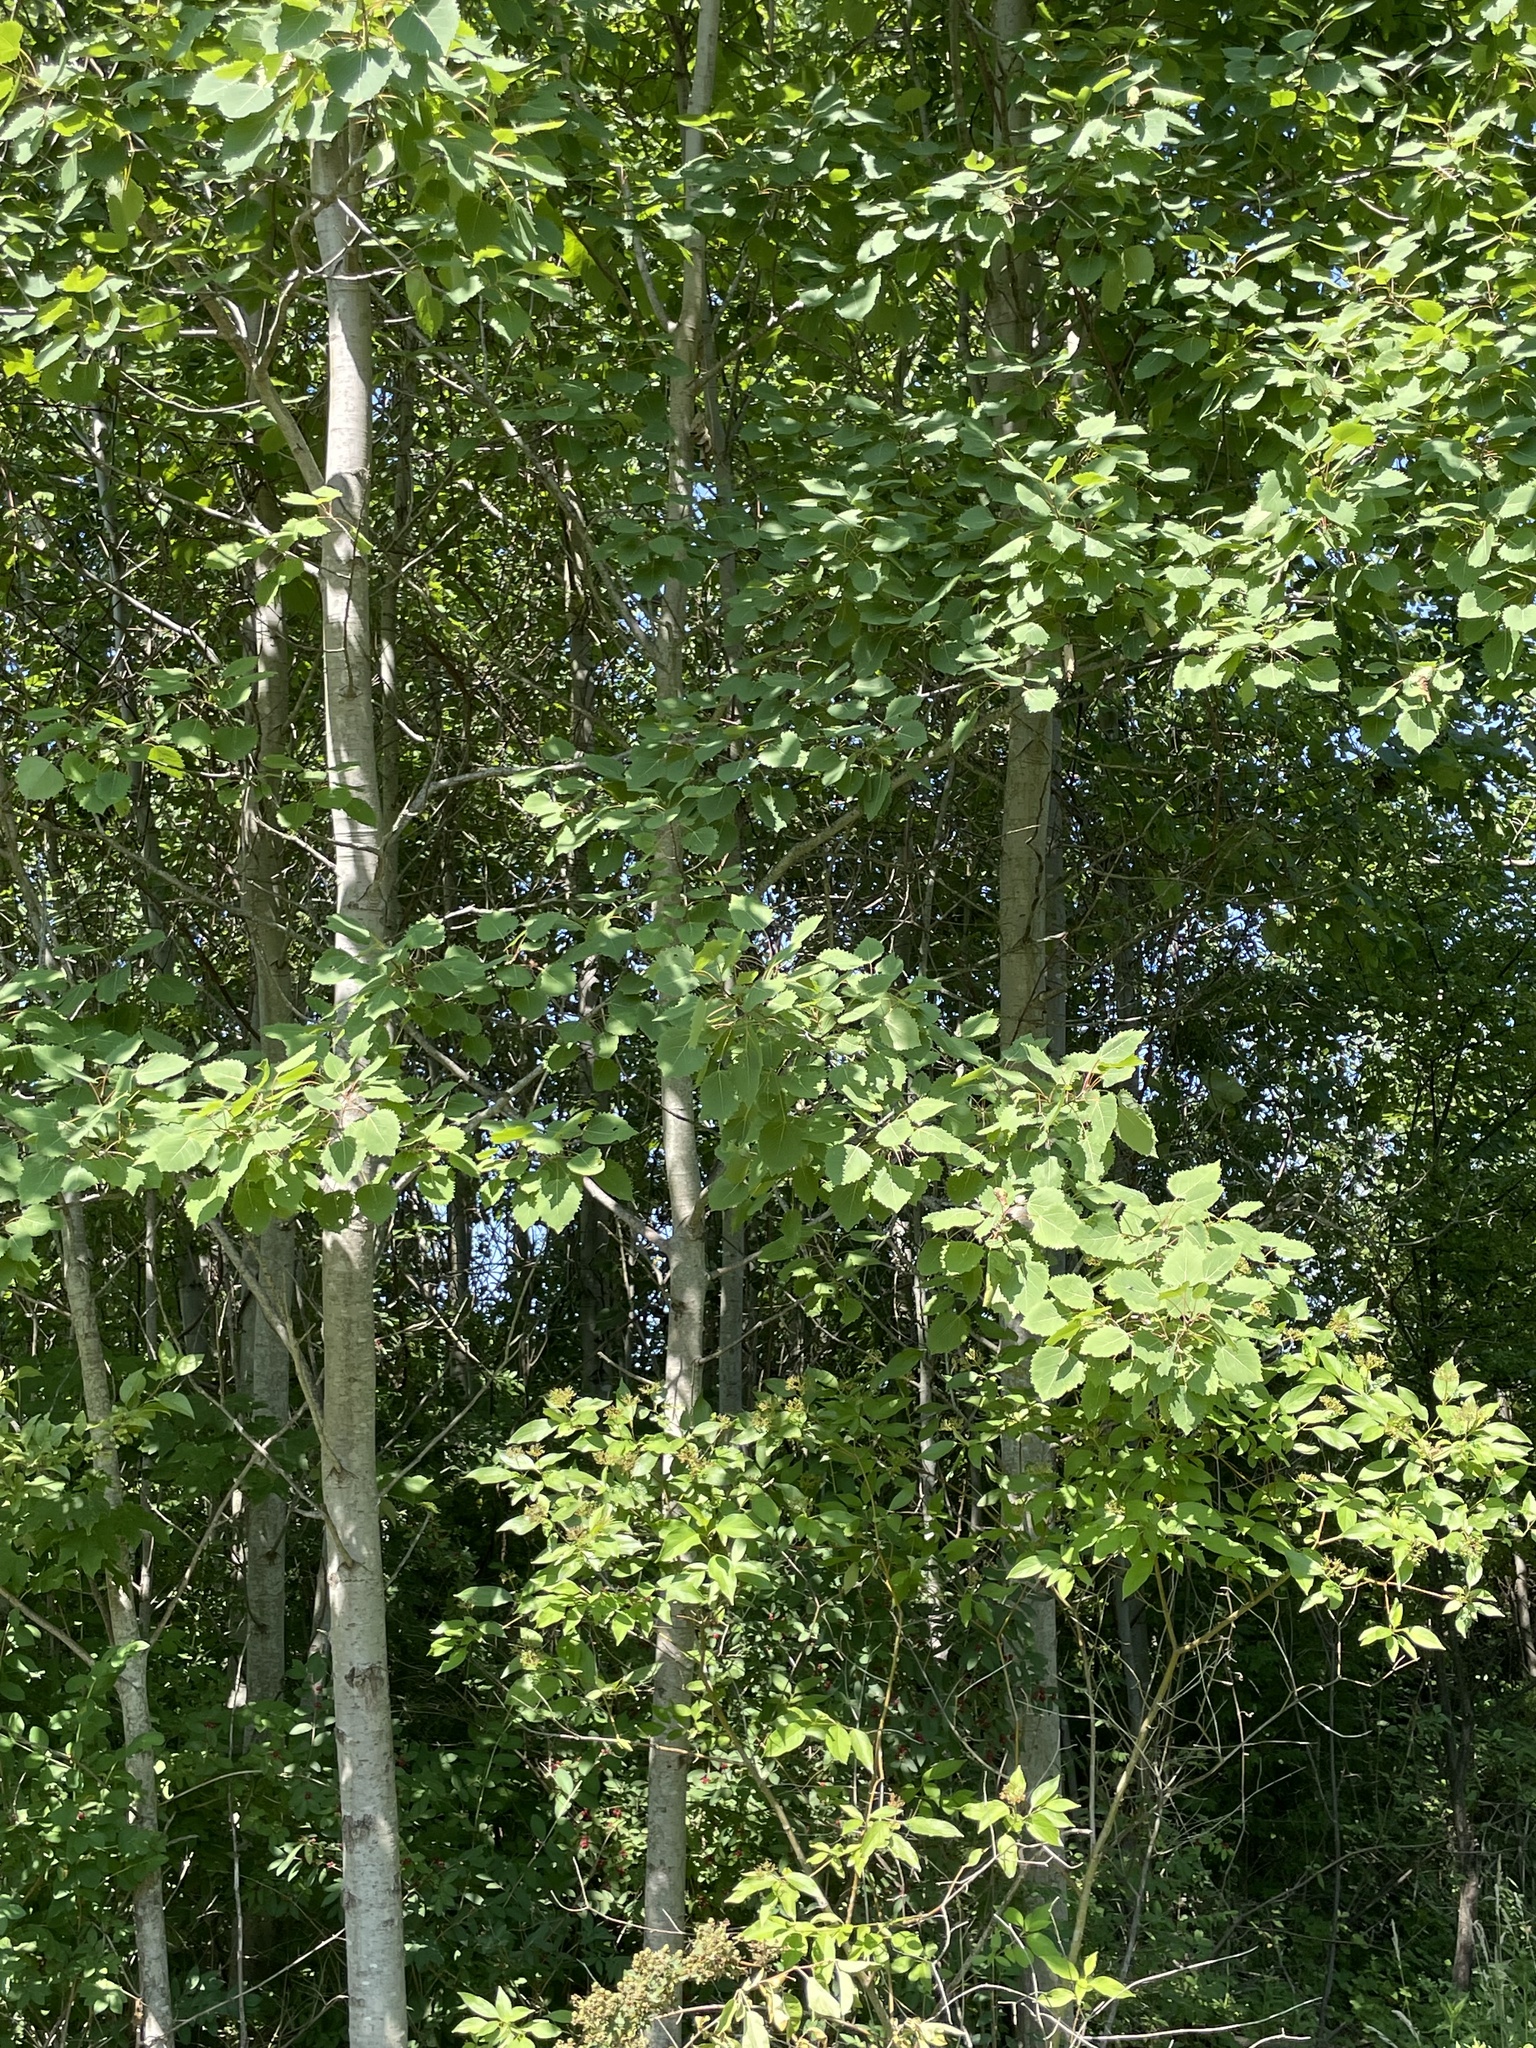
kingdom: Plantae
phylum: Tracheophyta
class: Magnoliopsida
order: Malpighiales
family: Salicaceae
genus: Populus
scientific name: Populus grandidentata
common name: Bigtooth aspen
